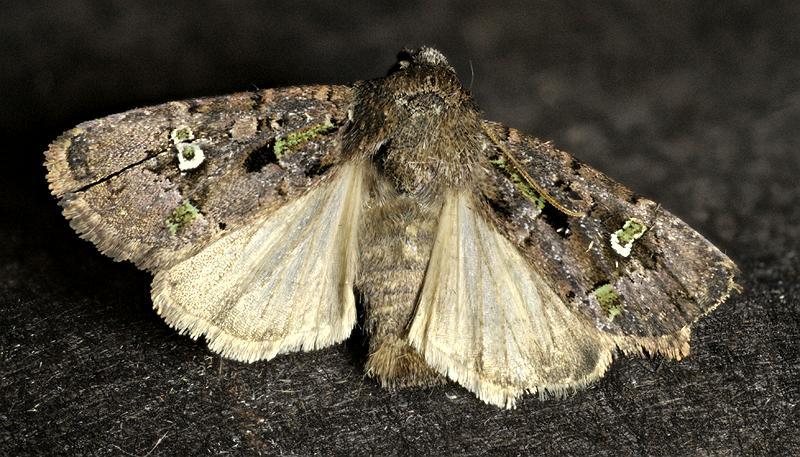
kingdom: Animalia
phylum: Arthropoda
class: Insecta
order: Lepidoptera
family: Noctuidae
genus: Lacinipolia
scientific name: Lacinipolia renigera
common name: Kidney-spotted minor
